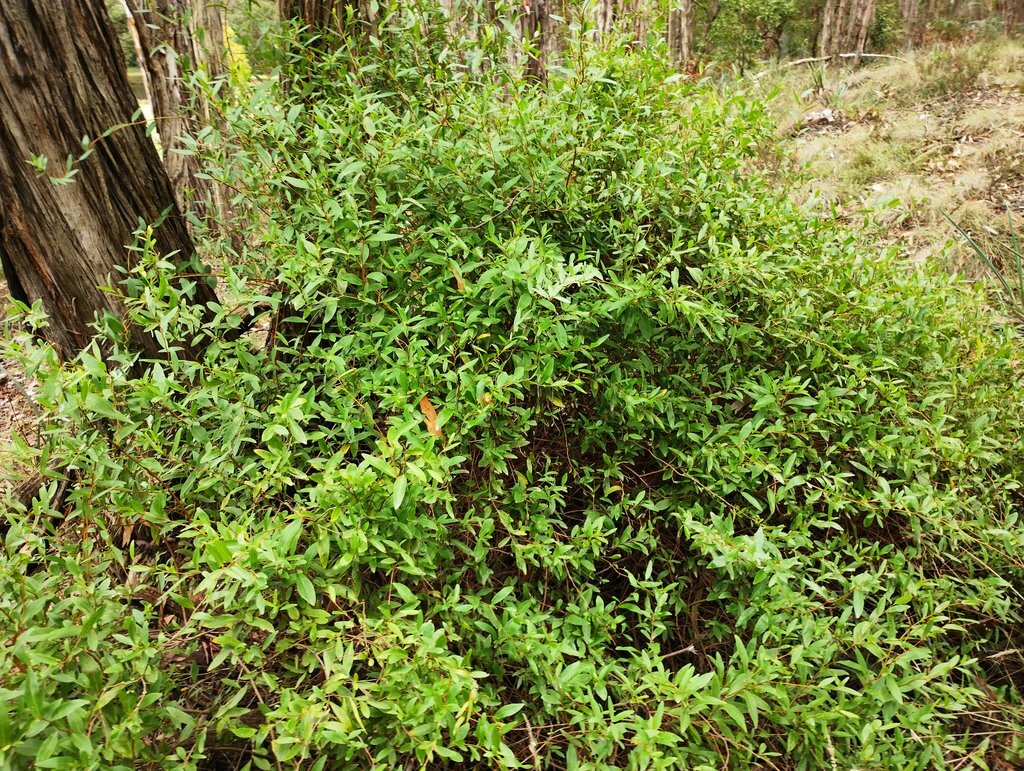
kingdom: Plantae
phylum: Tracheophyta
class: Magnoliopsida
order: Apiales
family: Pittosporaceae
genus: Billardiera
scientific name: Billardiera fusiformis
